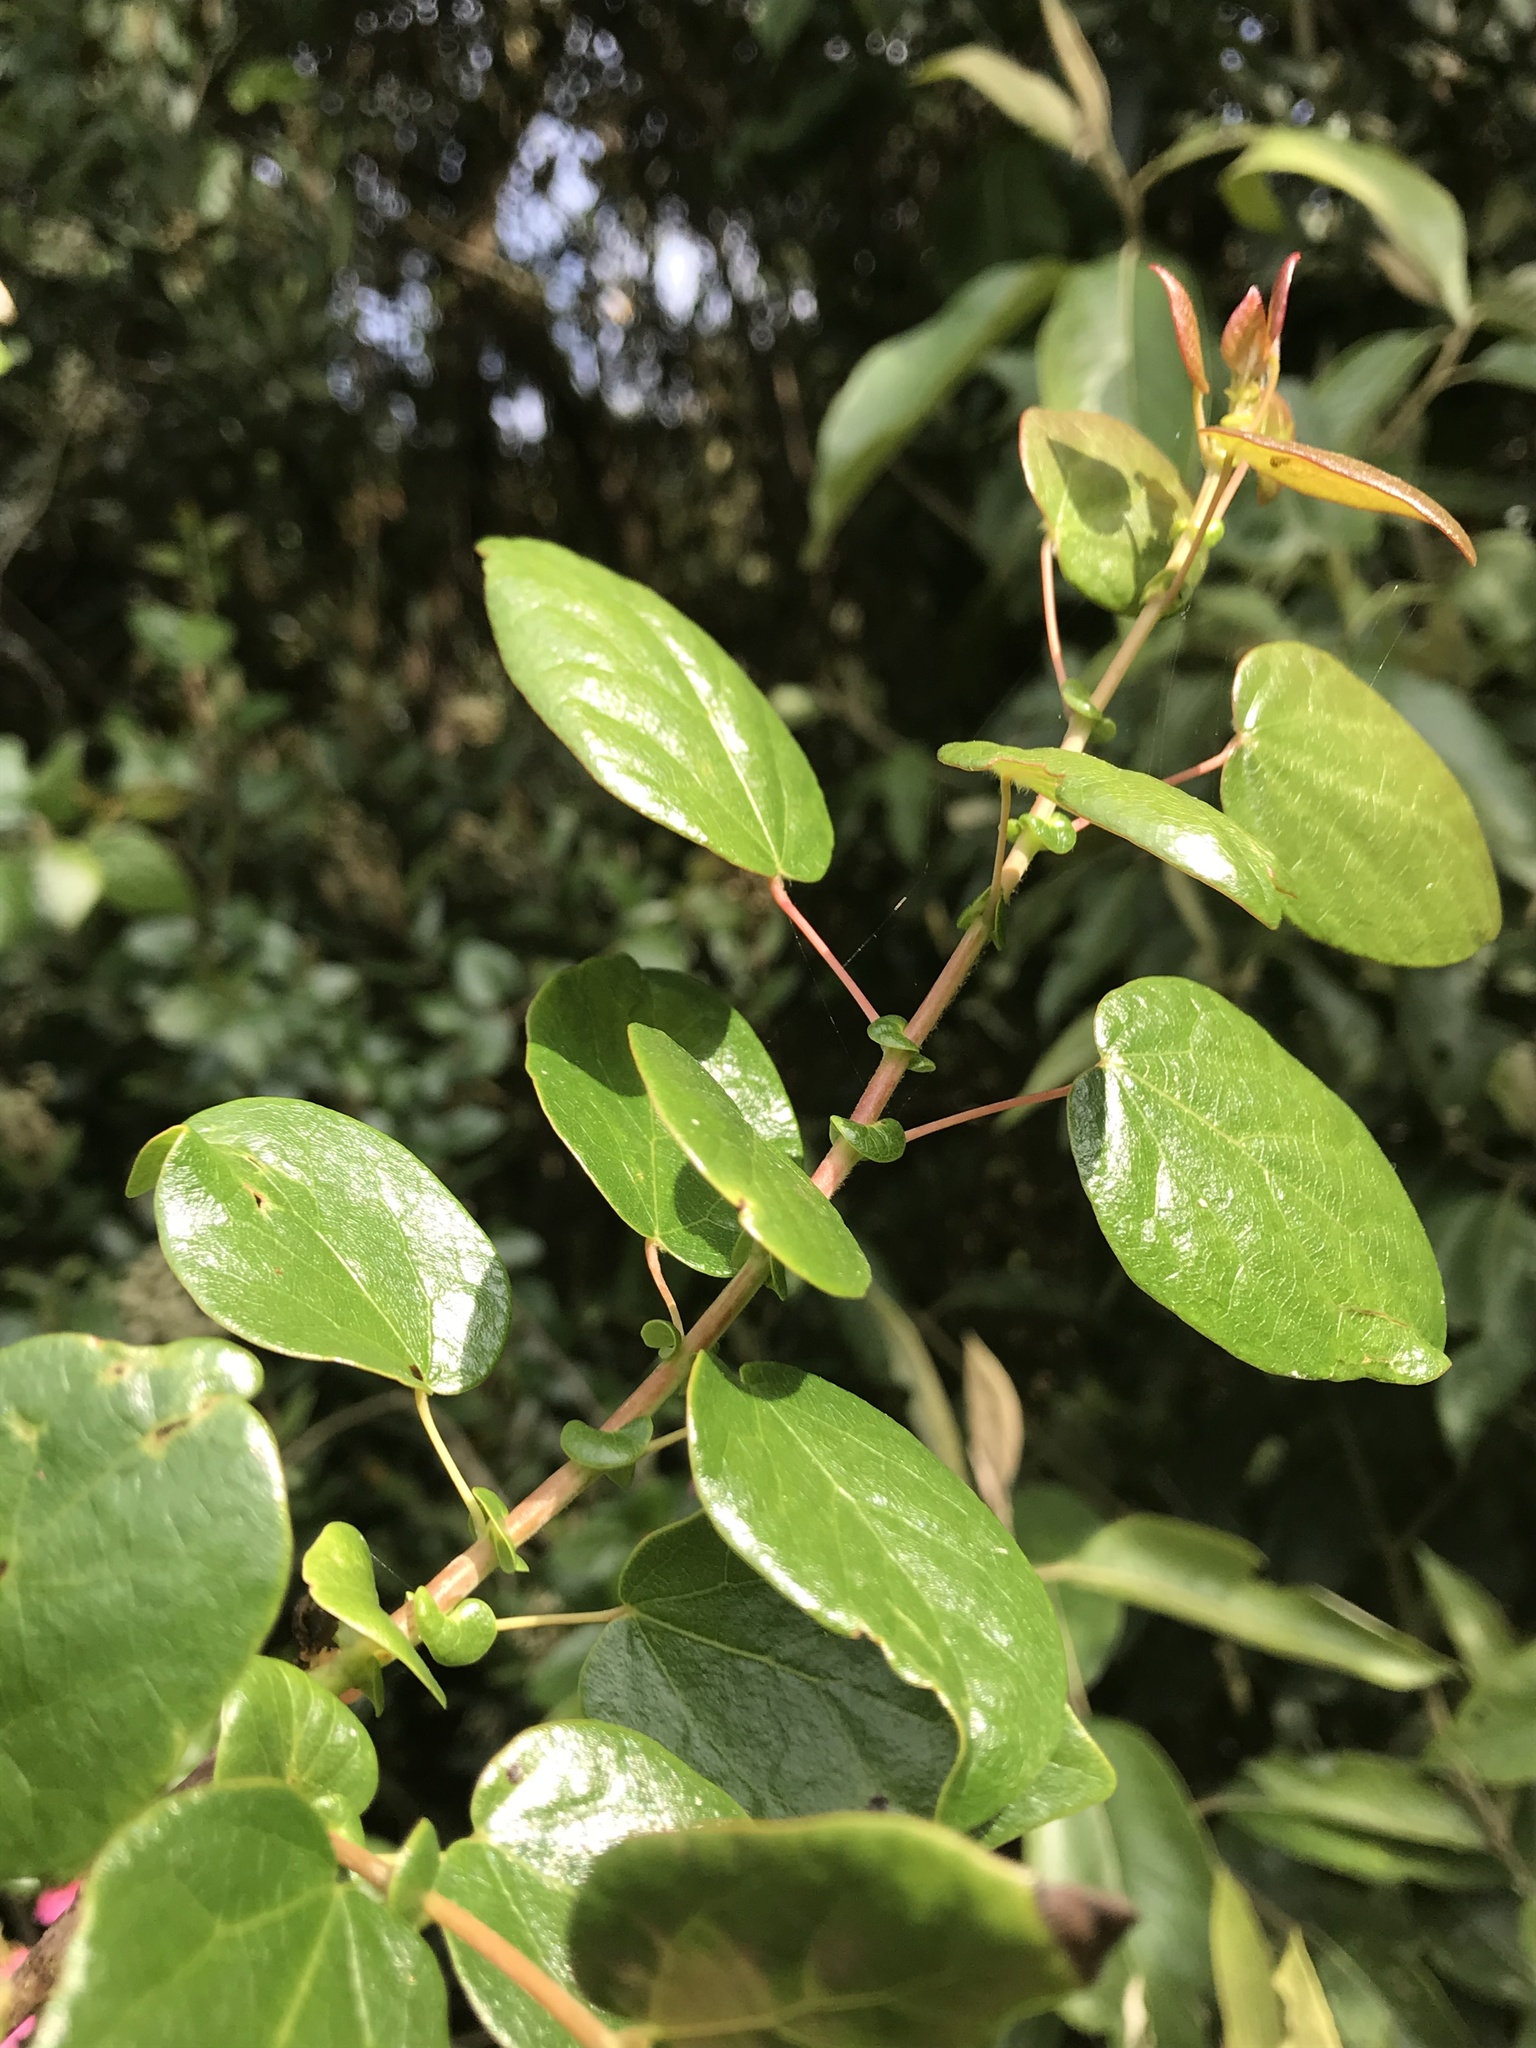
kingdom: Plantae
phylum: Tracheophyta
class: Magnoliopsida
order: Oxalidales
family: Elaeocarpaceae
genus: Vallea
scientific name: Vallea stipularis
